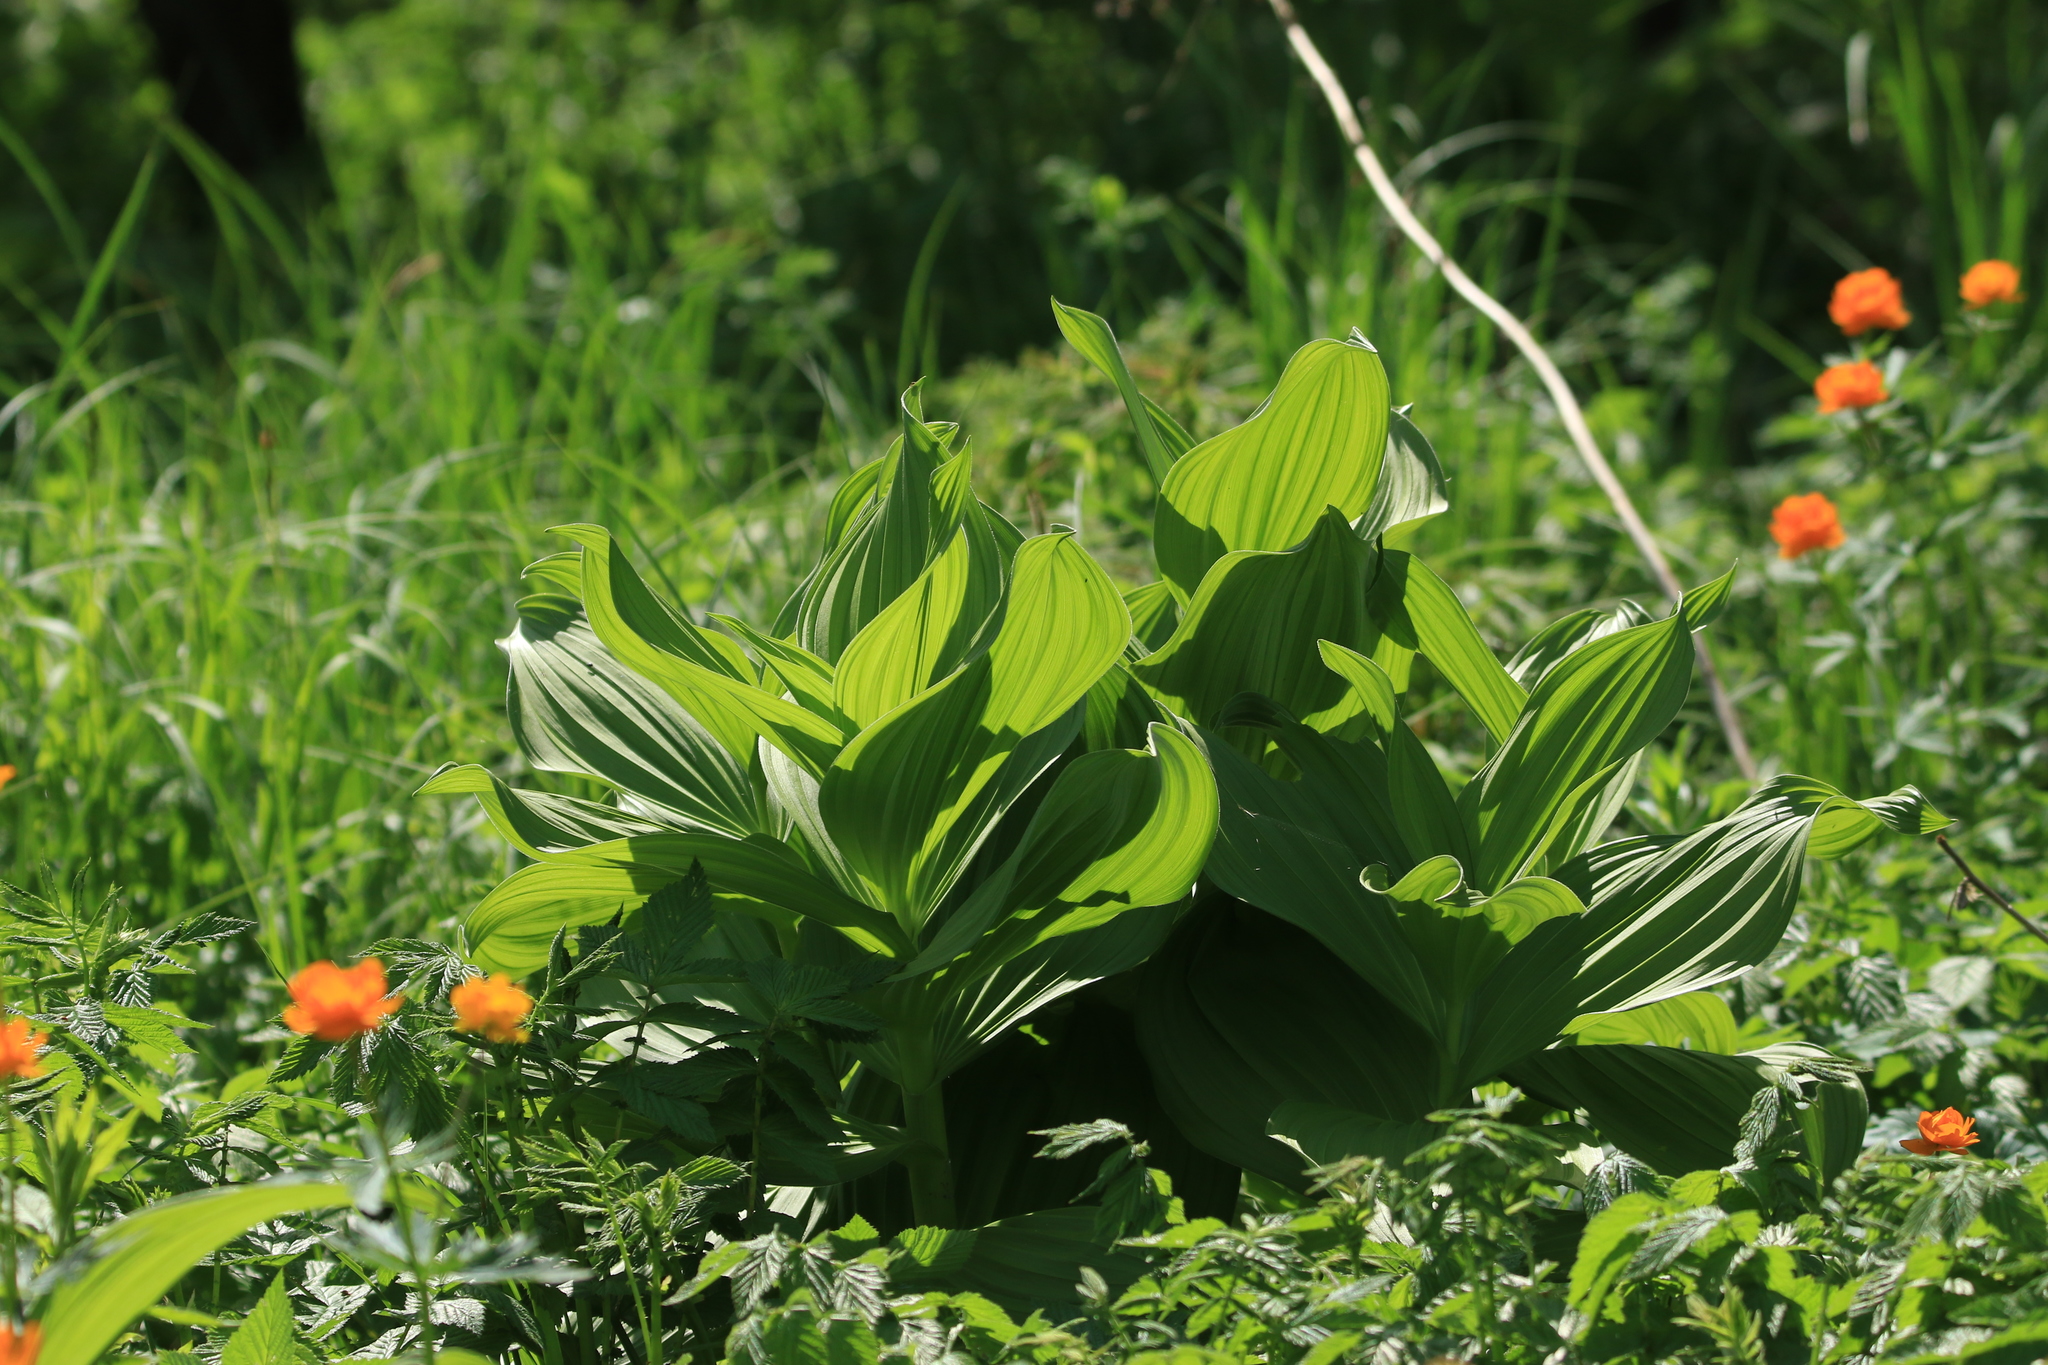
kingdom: Plantae
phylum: Tracheophyta
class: Liliopsida
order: Liliales
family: Melanthiaceae
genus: Veratrum
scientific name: Veratrum lobelianum
